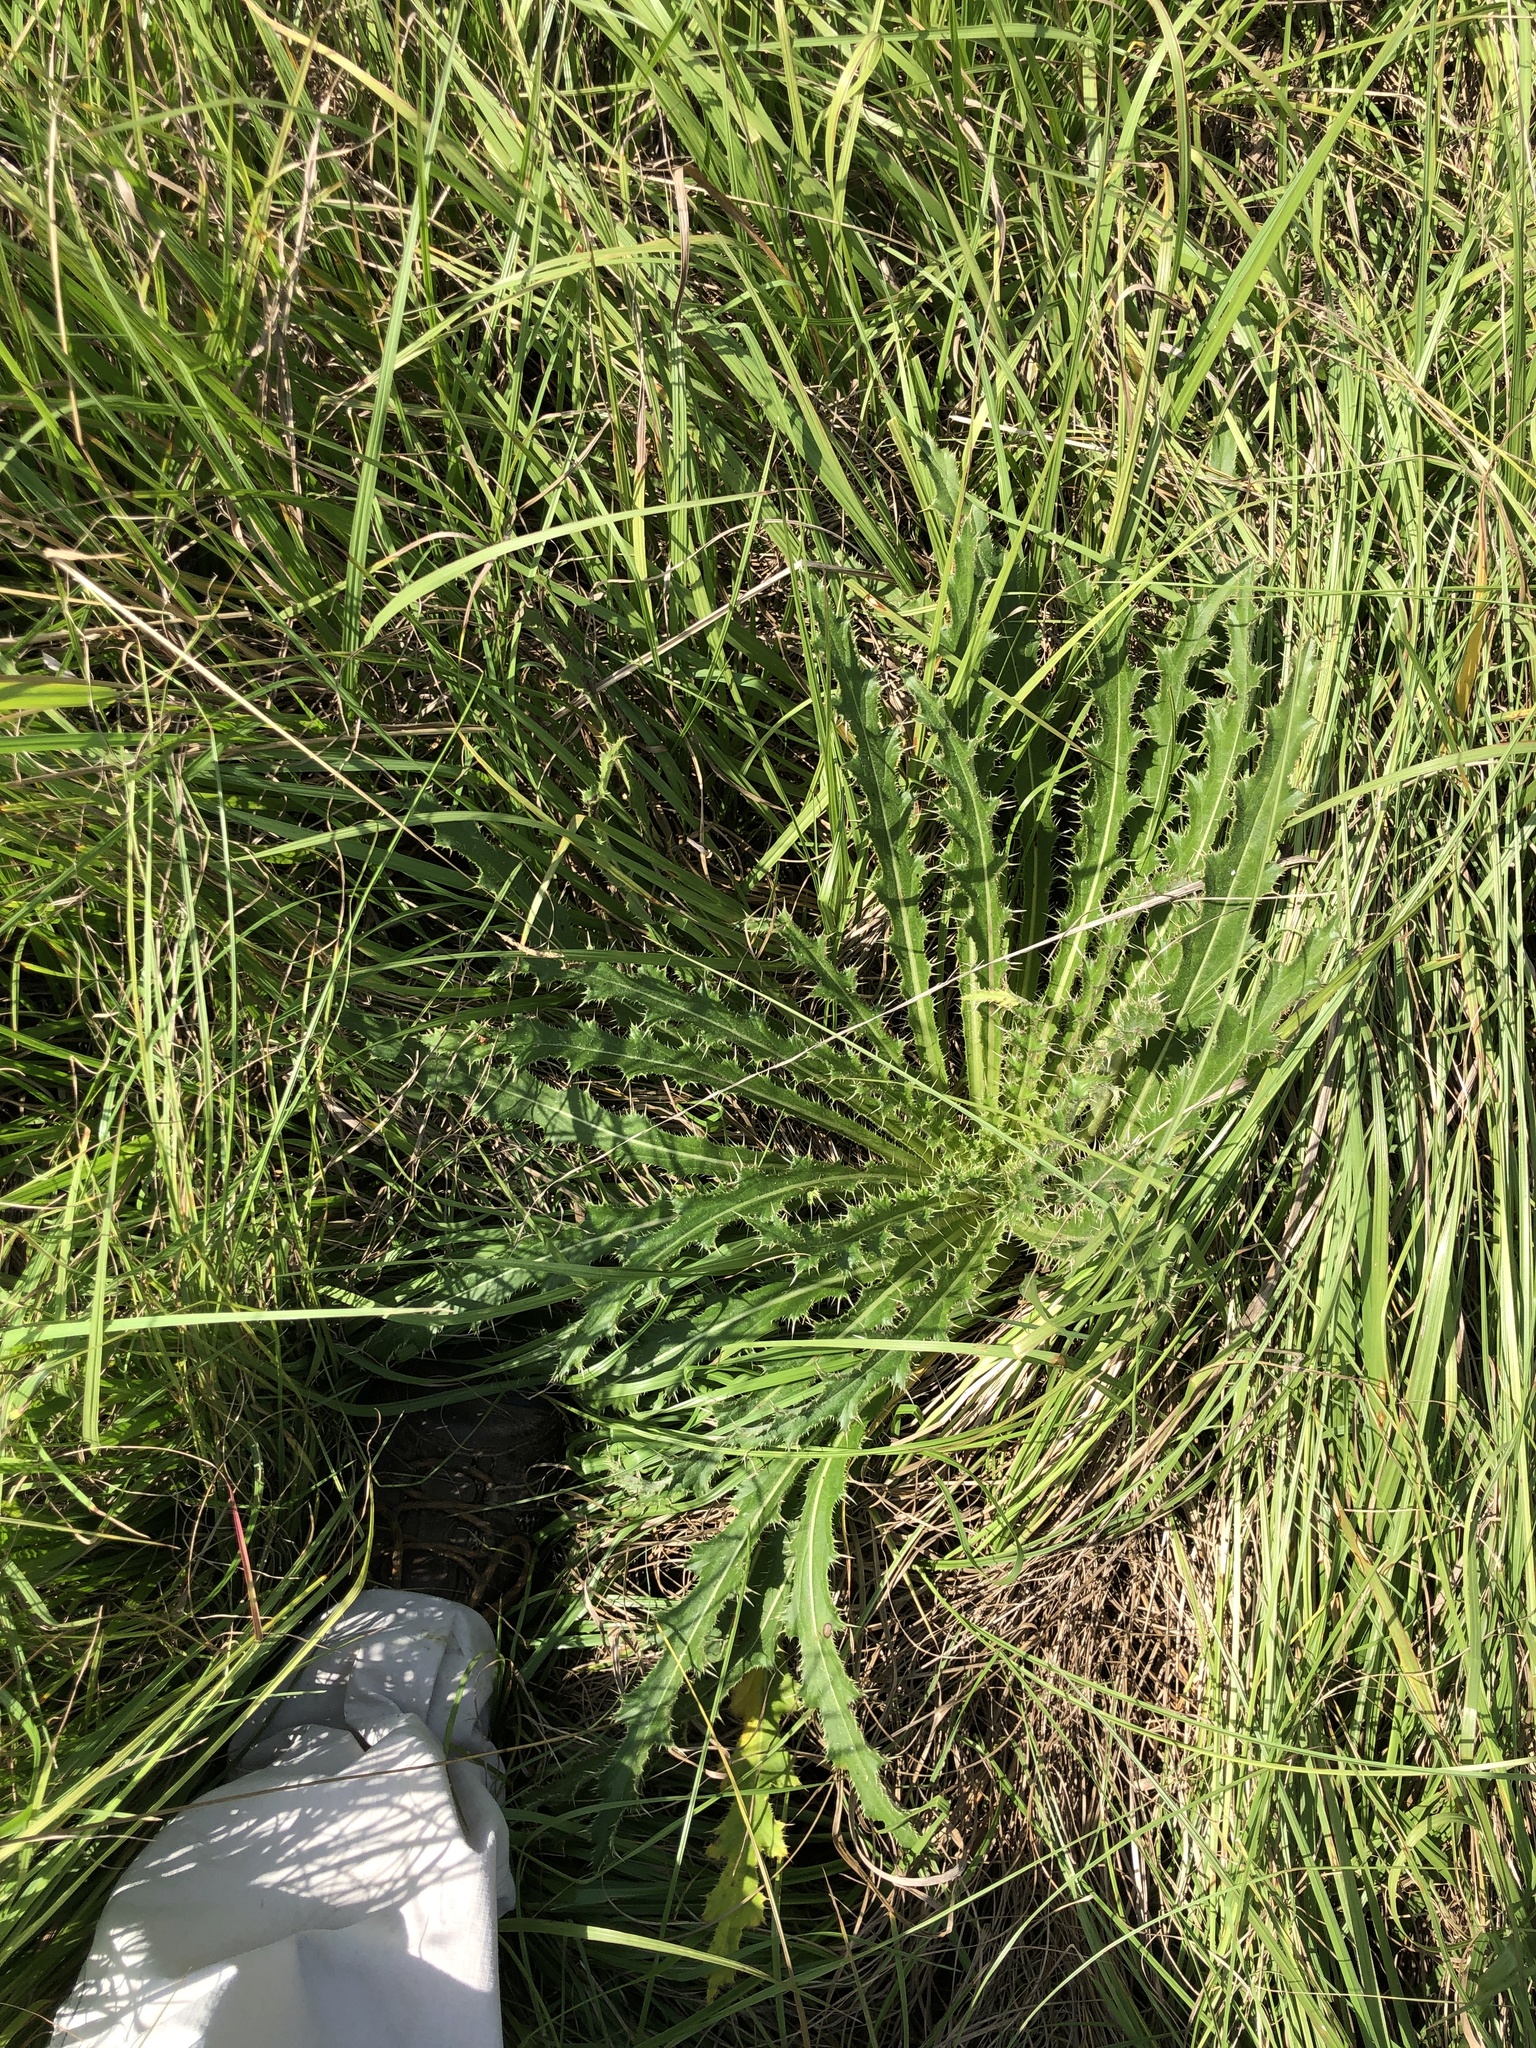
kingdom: Plantae
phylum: Tracheophyta
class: Magnoliopsida
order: Asterales
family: Asteraceae
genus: Cirsium
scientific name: Cirsium horridulum
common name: Bristly thistle
